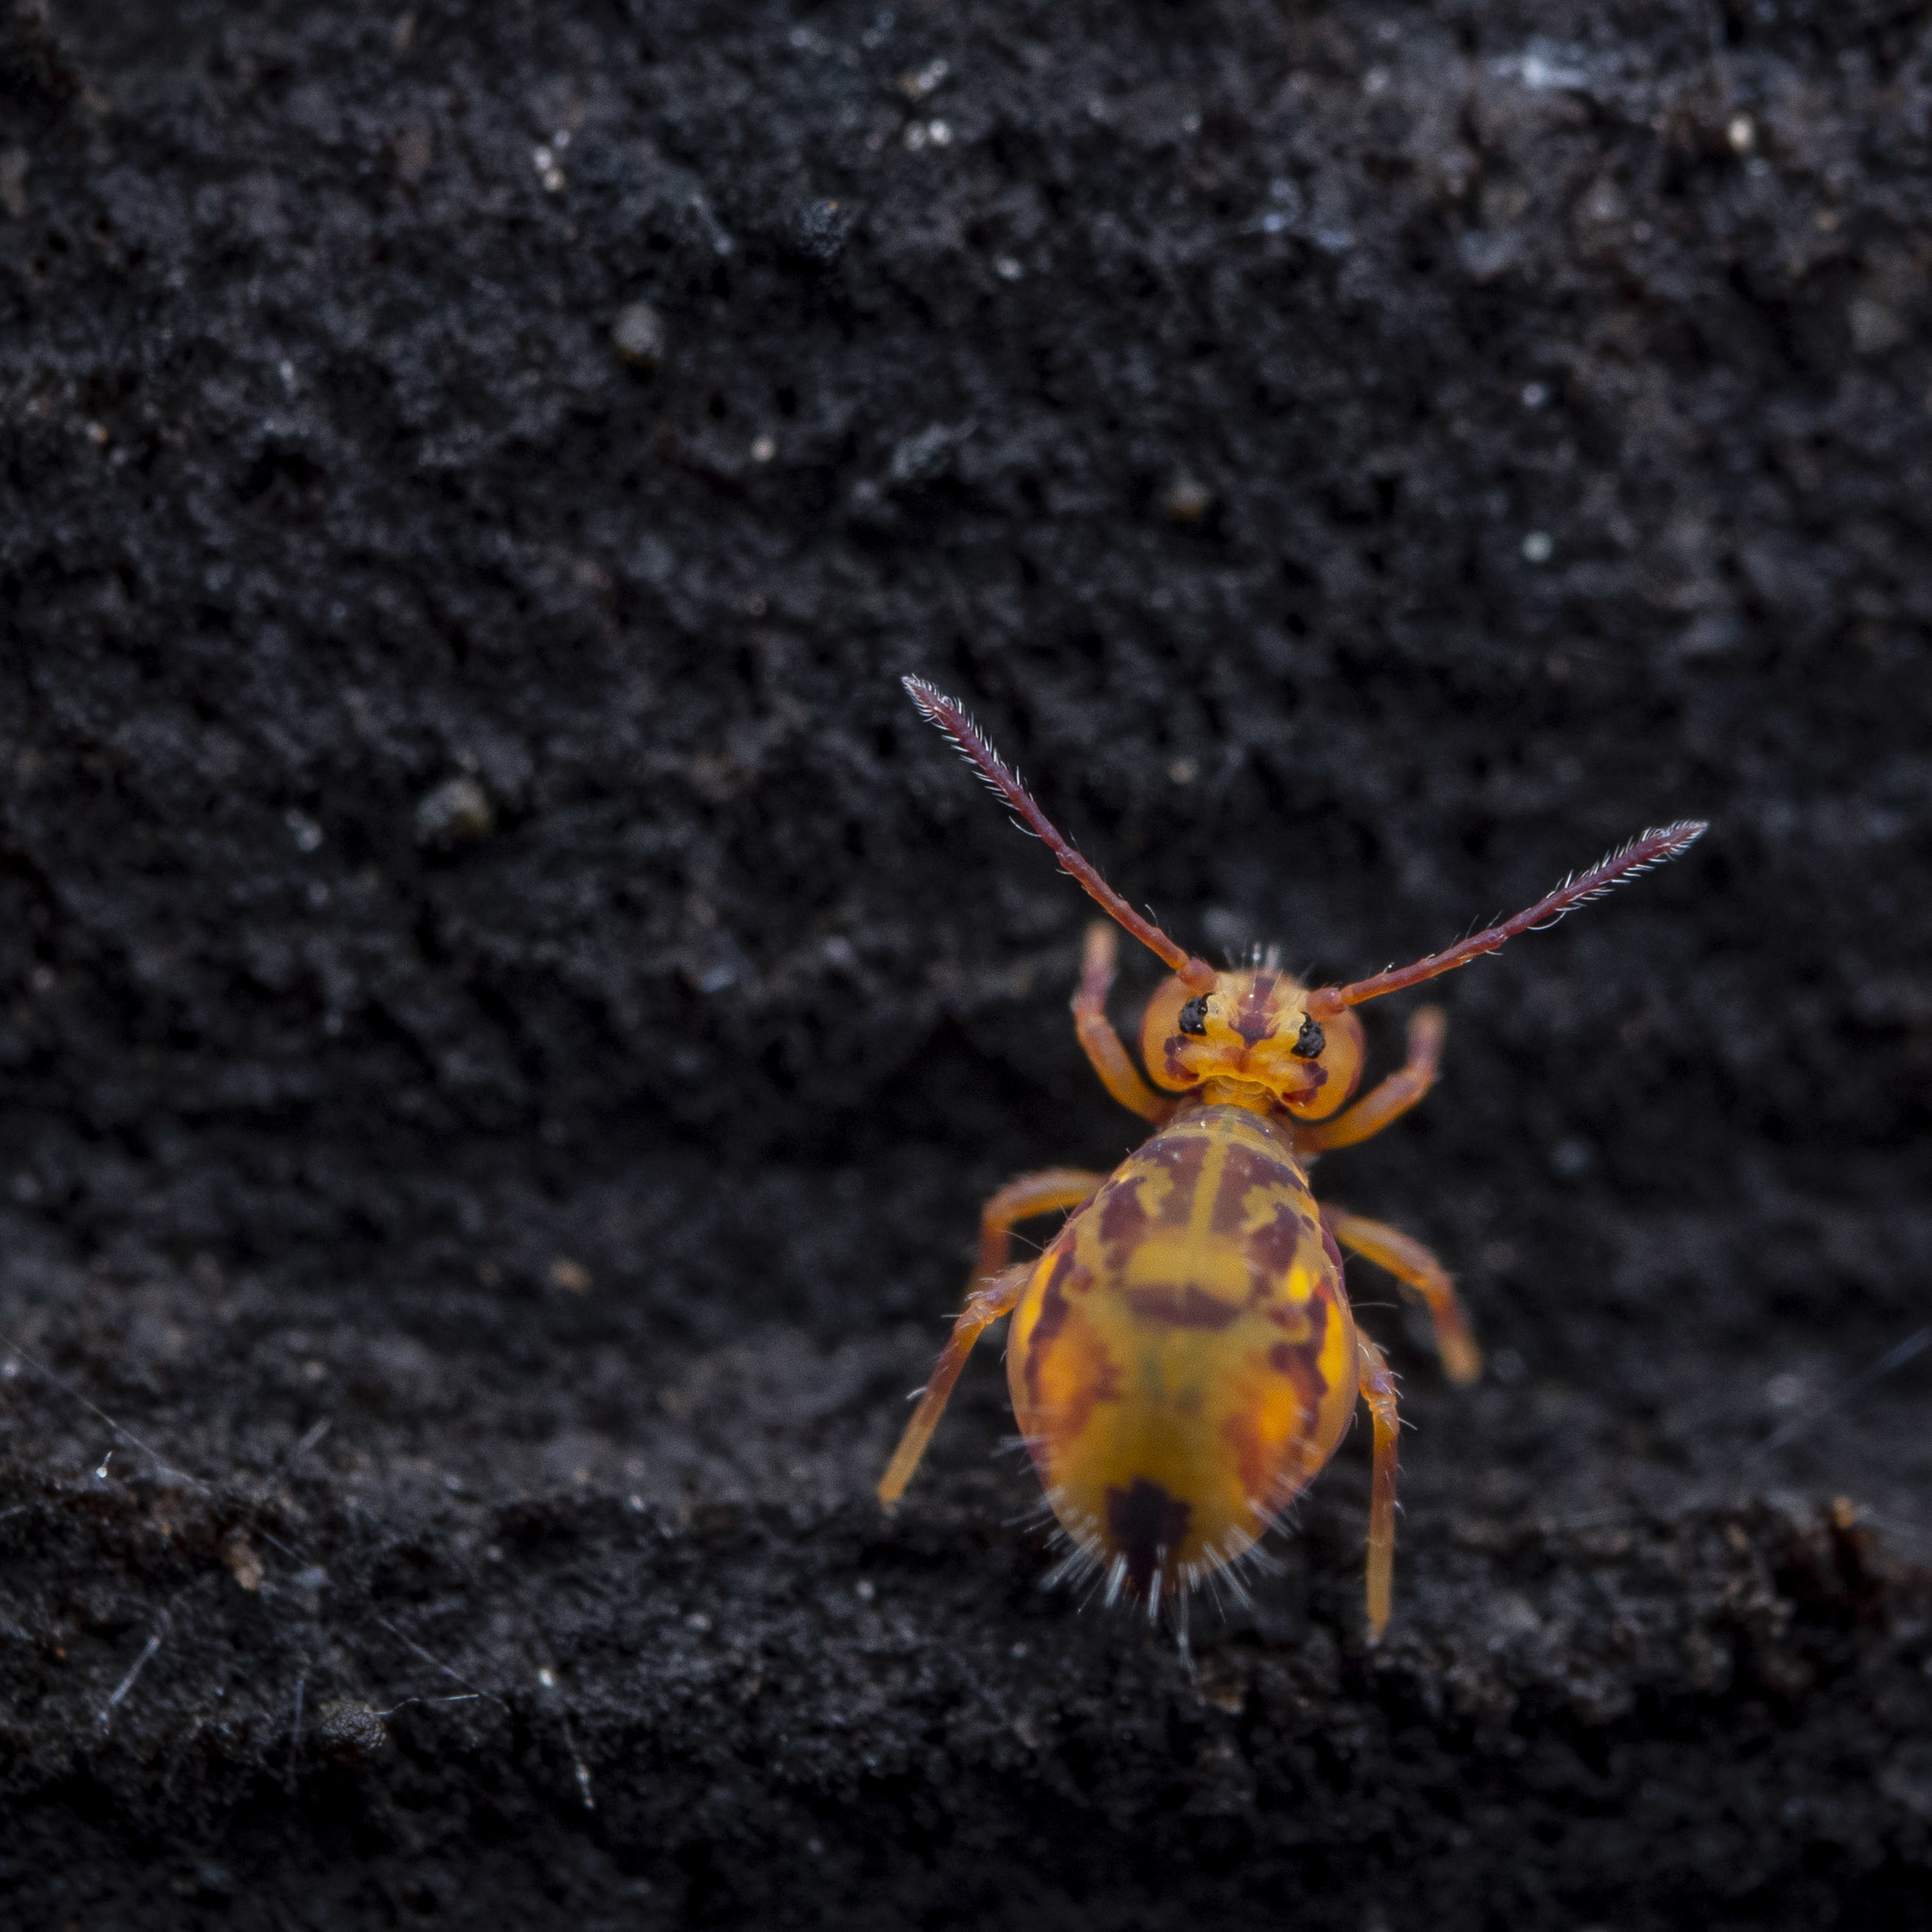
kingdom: Animalia
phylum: Arthropoda
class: Collembola
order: Symphypleona
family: Dicyrtomidae
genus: Dicyrtomina
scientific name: Dicyrtomina ornata
